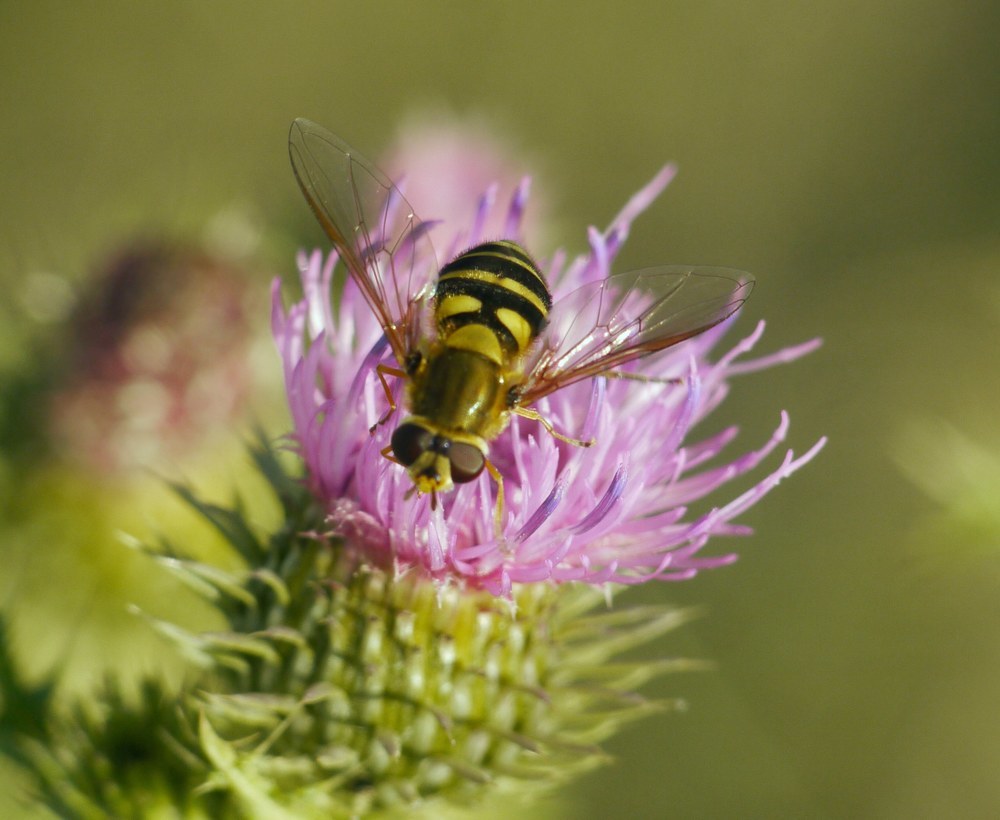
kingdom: Animalia
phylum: Arthropoda
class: Insecta
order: Diptera
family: Syrphidae
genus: Syrphus
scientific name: Syrphus
